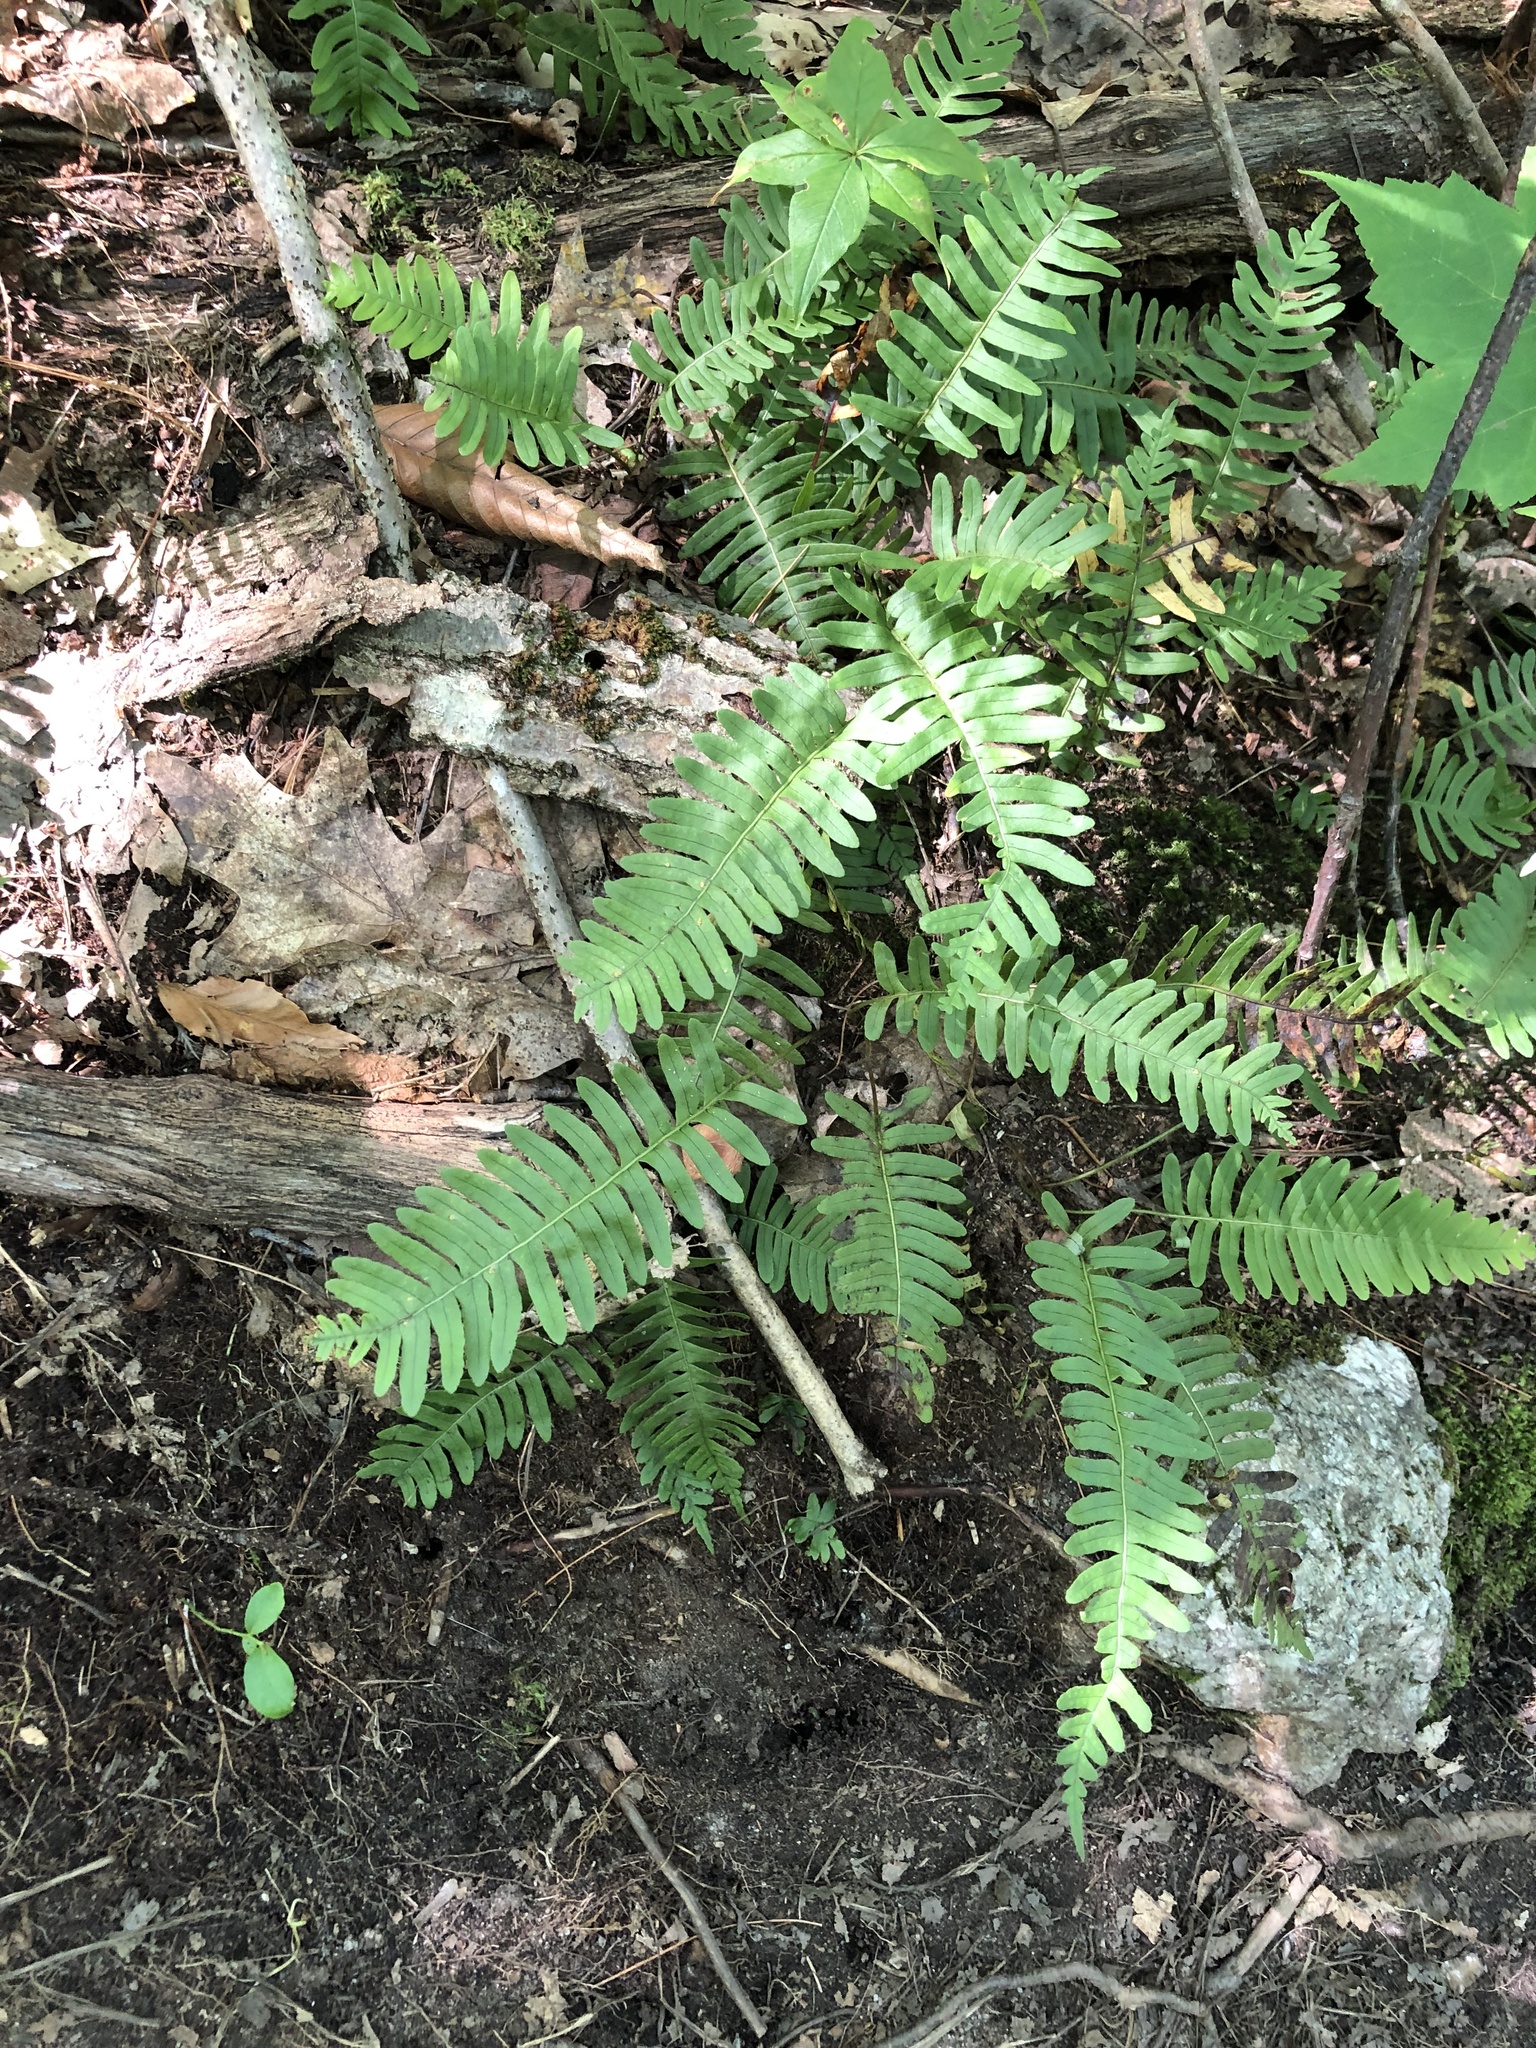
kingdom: Plantae
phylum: Tracheophyta
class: Polypodiopsida
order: Polypodiales
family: Polypodiaceae
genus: Polypodium
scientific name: Polypodium virginianum
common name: American wall fern
